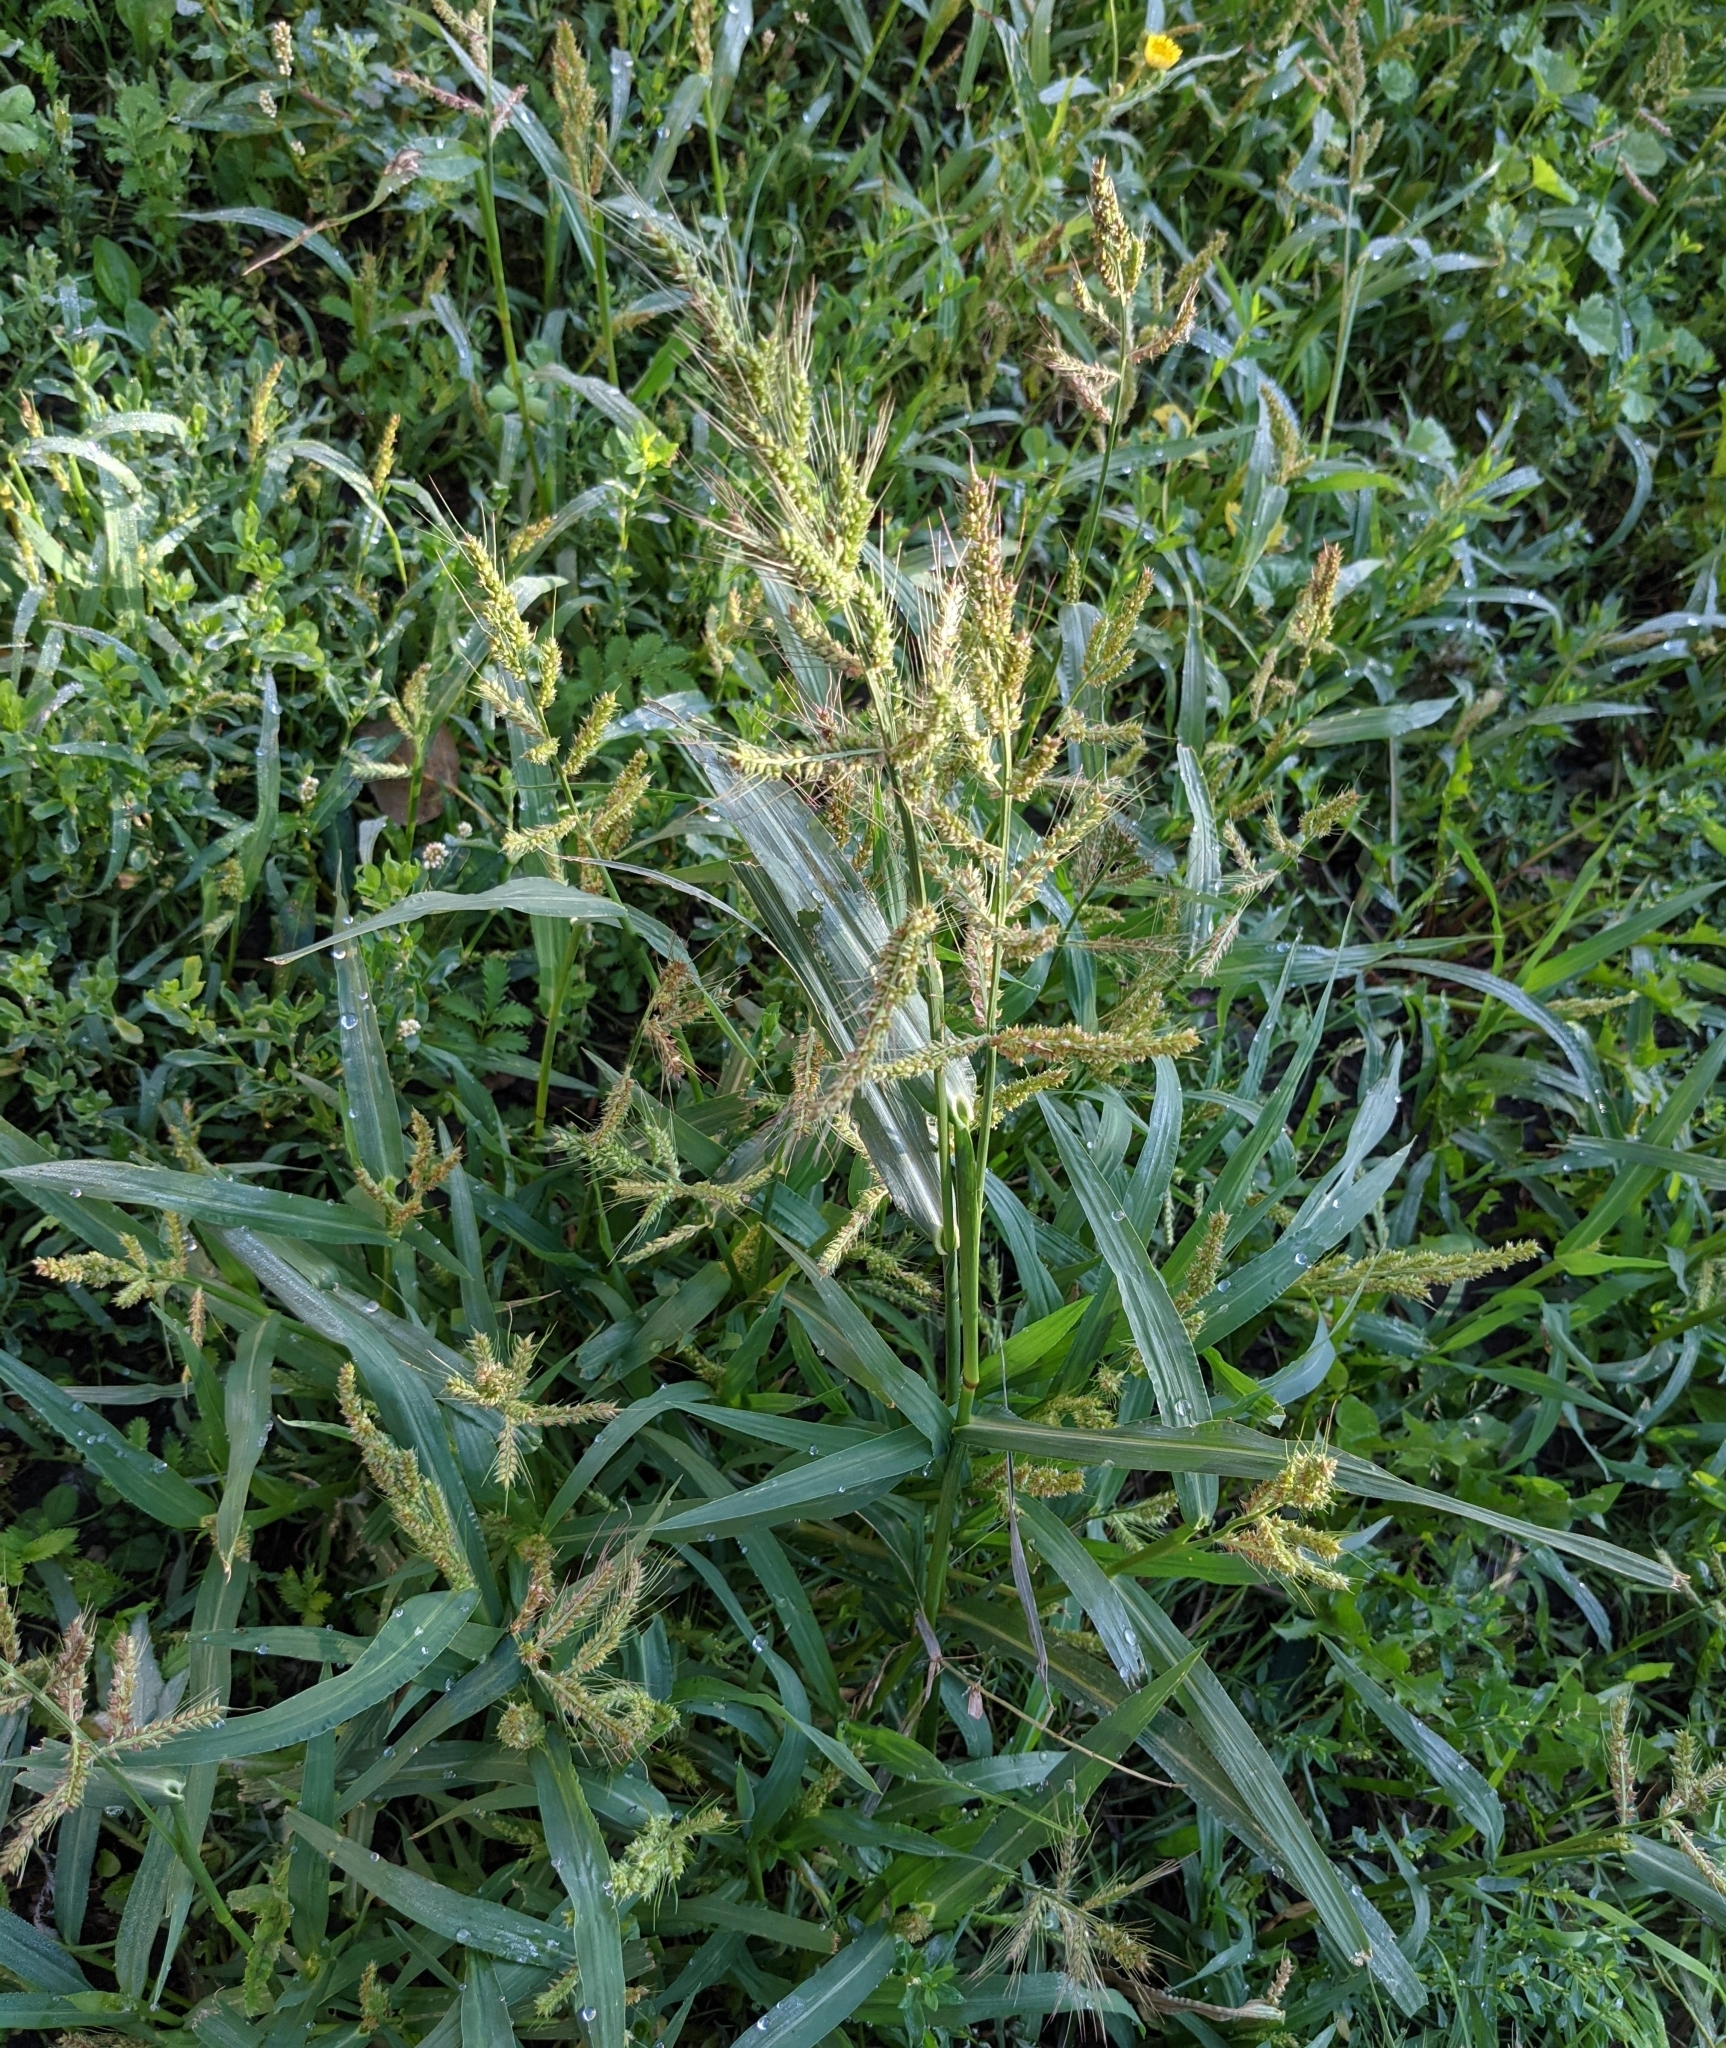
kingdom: Plantae
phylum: Tracheophyta
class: Liliopsida
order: Poales
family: Poaceae
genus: Echinochloa
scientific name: Echinochloa crus-galli
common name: Cockspur
